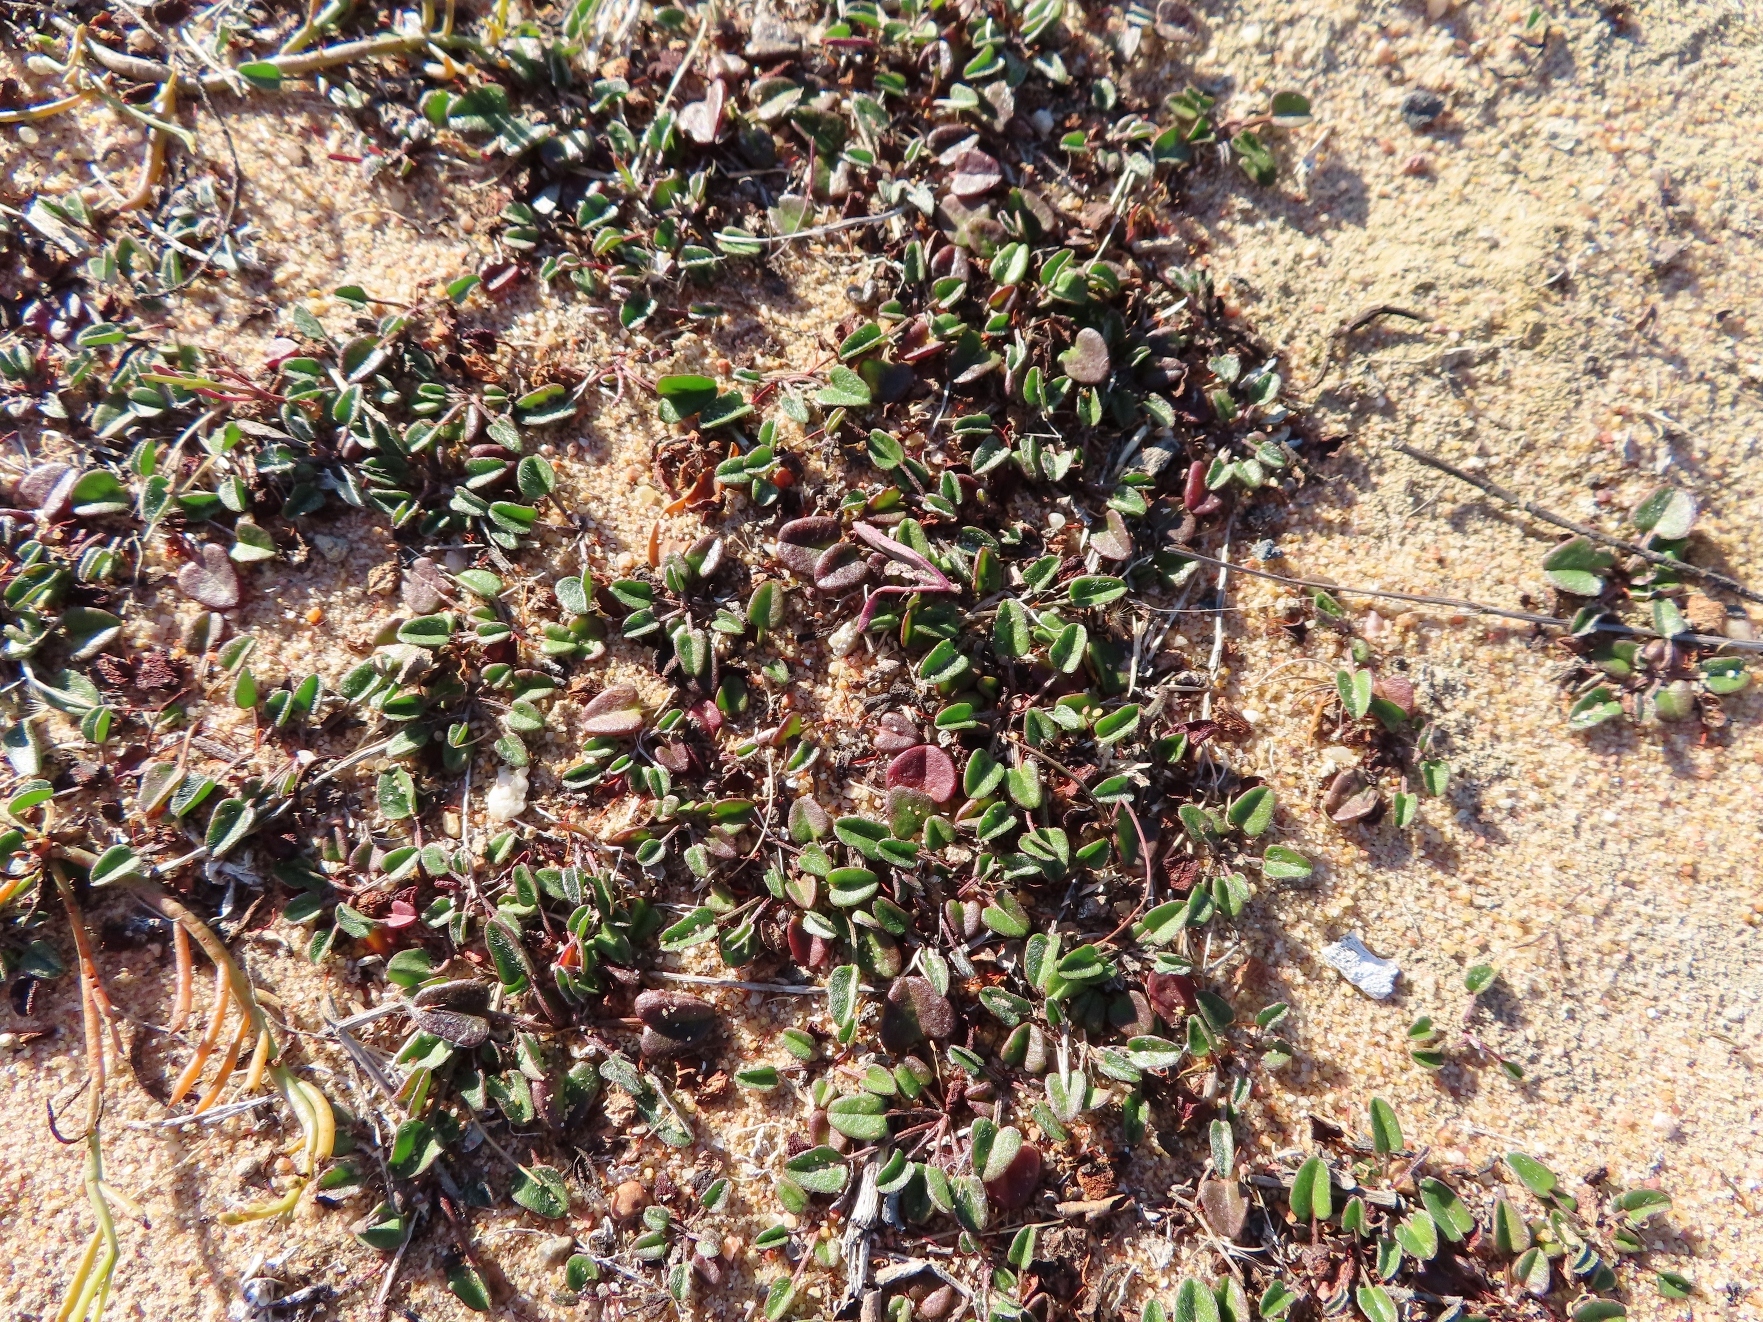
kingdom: Plantae
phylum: Tracheophyta
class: Magnoliopsida
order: Solanales
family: Convolvulaceae
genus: Falkia
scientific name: Falkia repens
